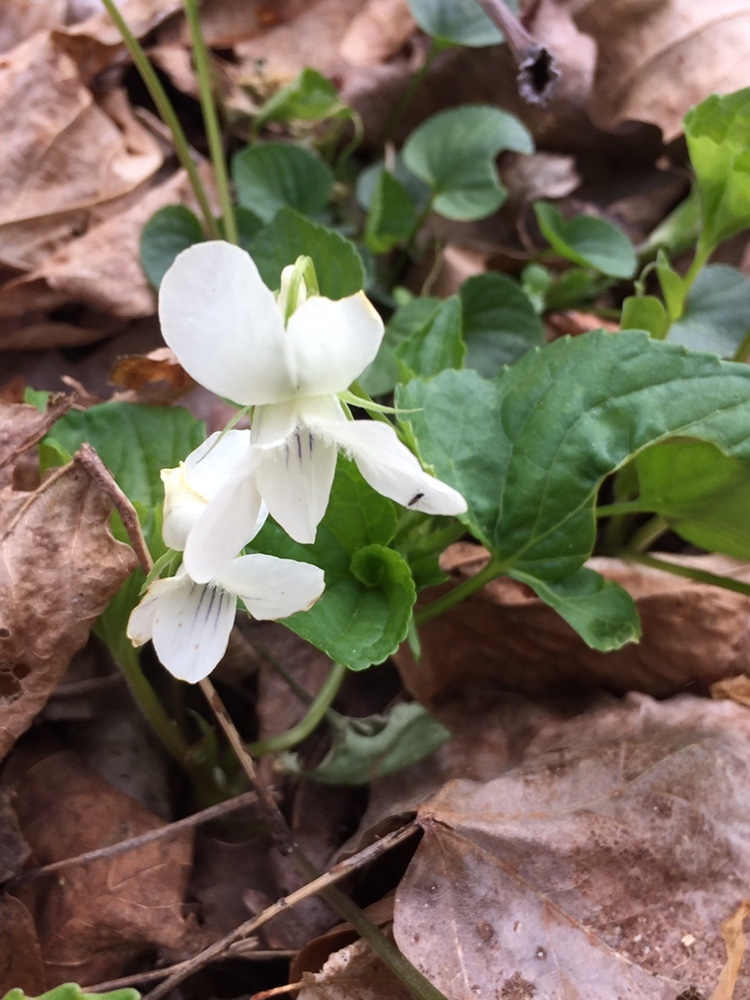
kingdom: Plantae
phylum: Tracheophyta
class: Magnoliopsida
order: Malpighiales
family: Violaceae
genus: Viola
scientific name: Viola striata
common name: Cream violet
